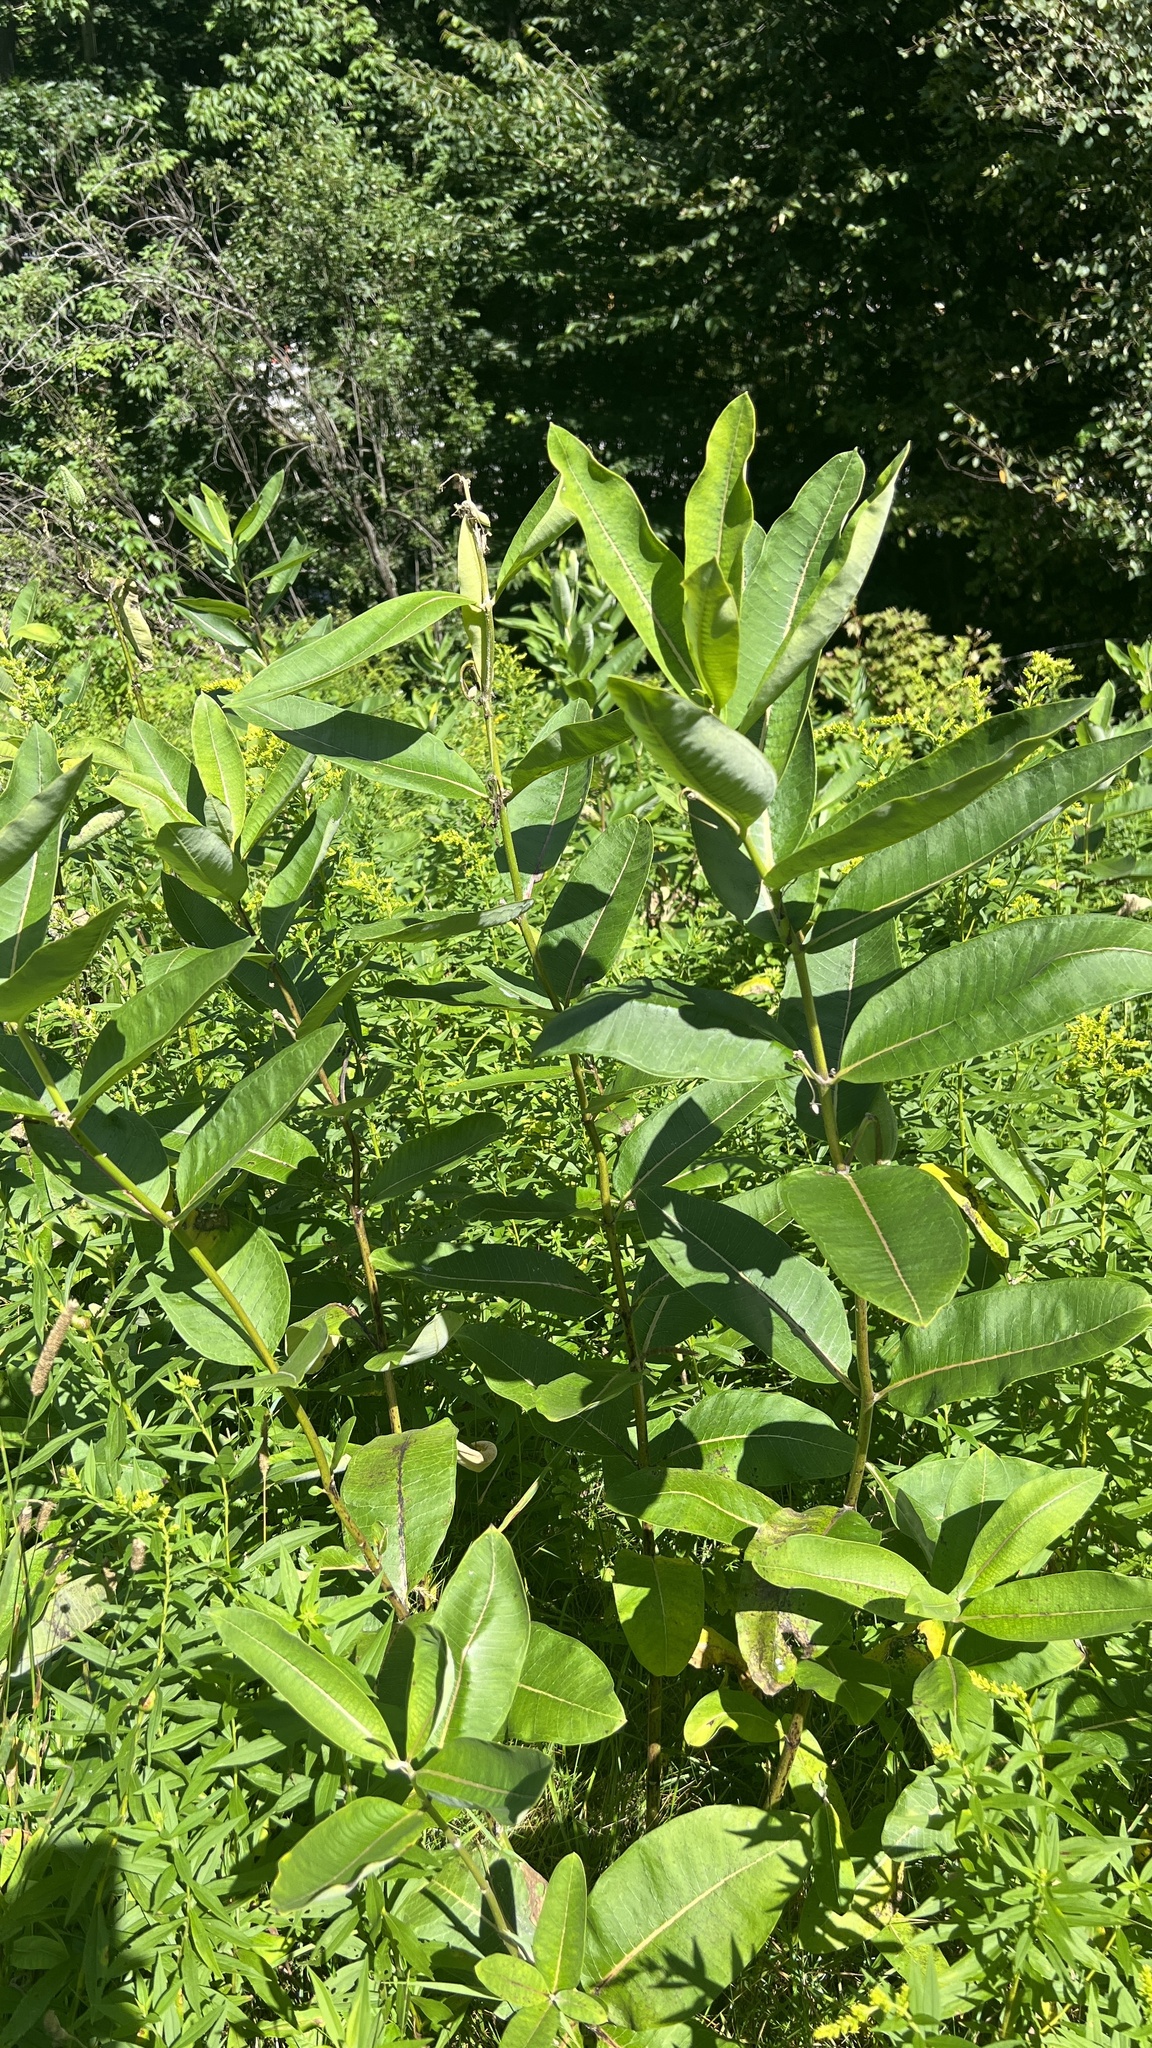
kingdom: Plantae
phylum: Tracheophyta
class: Magnoliopsida
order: Gentianales
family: Apocynaceae
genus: Asclepias
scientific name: Asclepias syriaca
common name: Common milkweed
